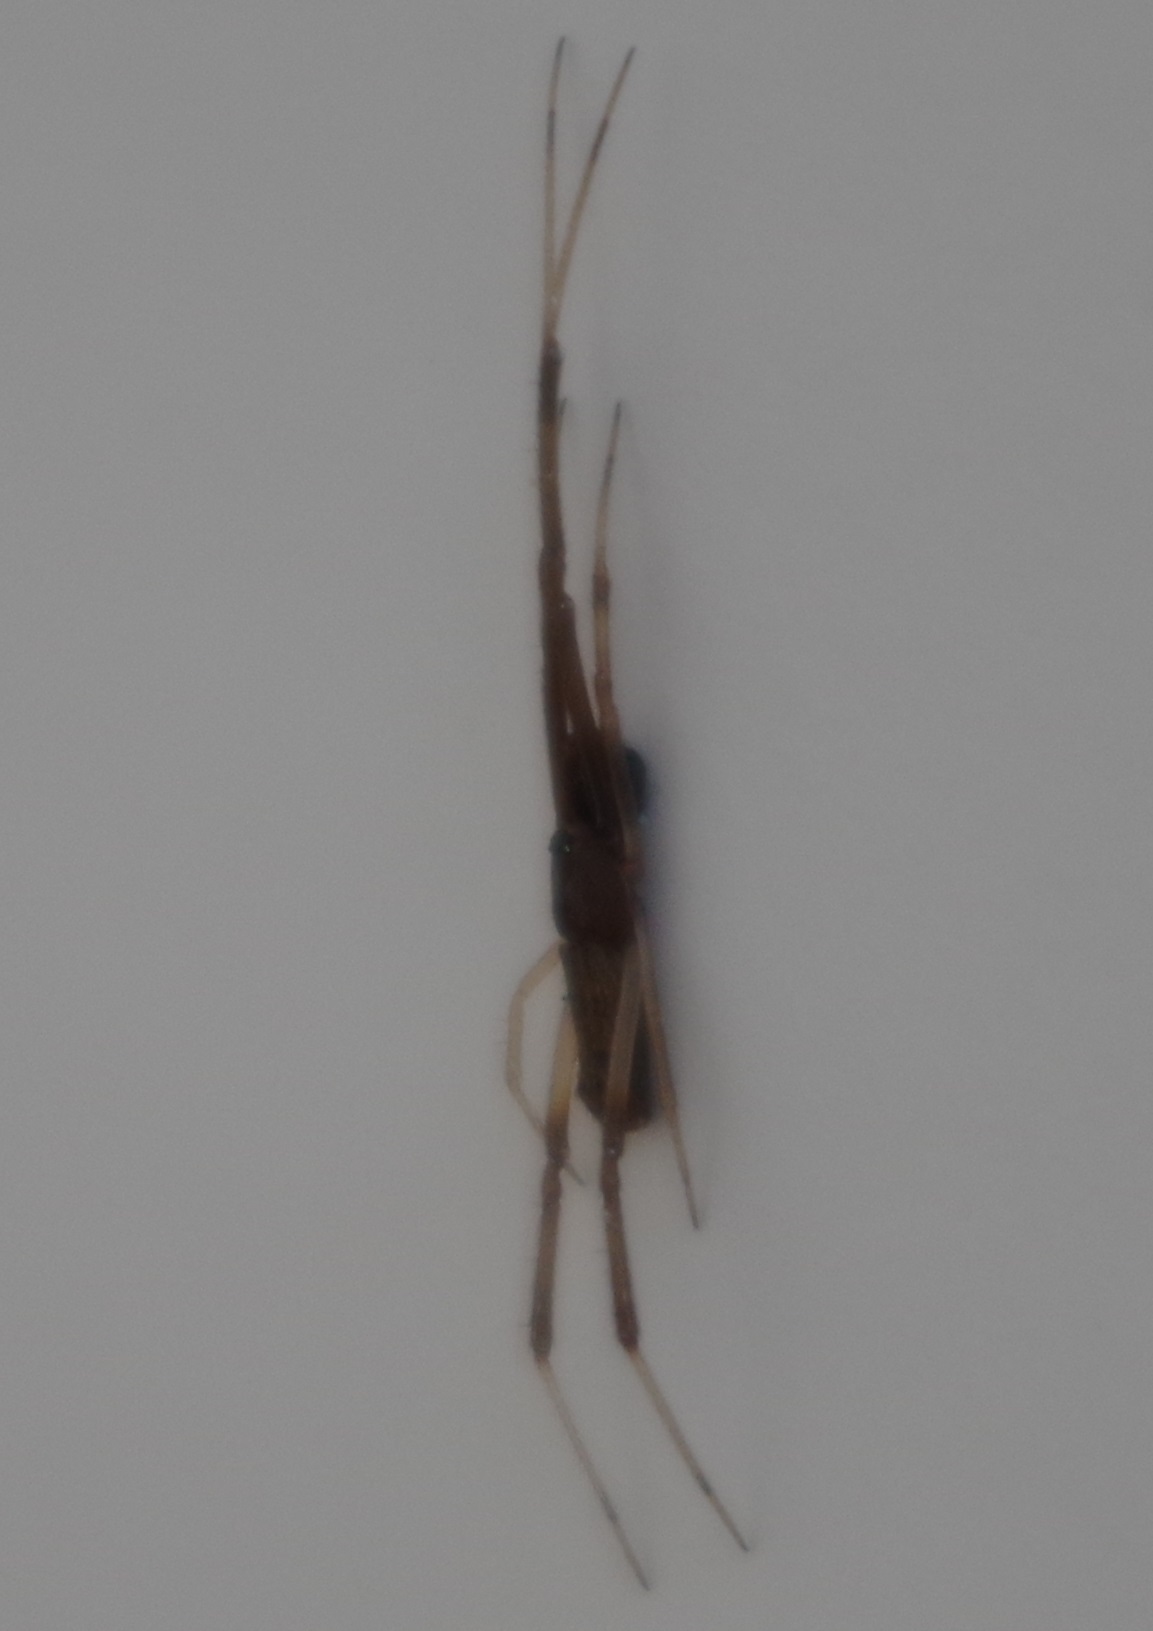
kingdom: Animalia
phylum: Arthropoda
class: Arachnida
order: Araneae
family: Theridiidae
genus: Episinus
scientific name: Episinus truncatus
